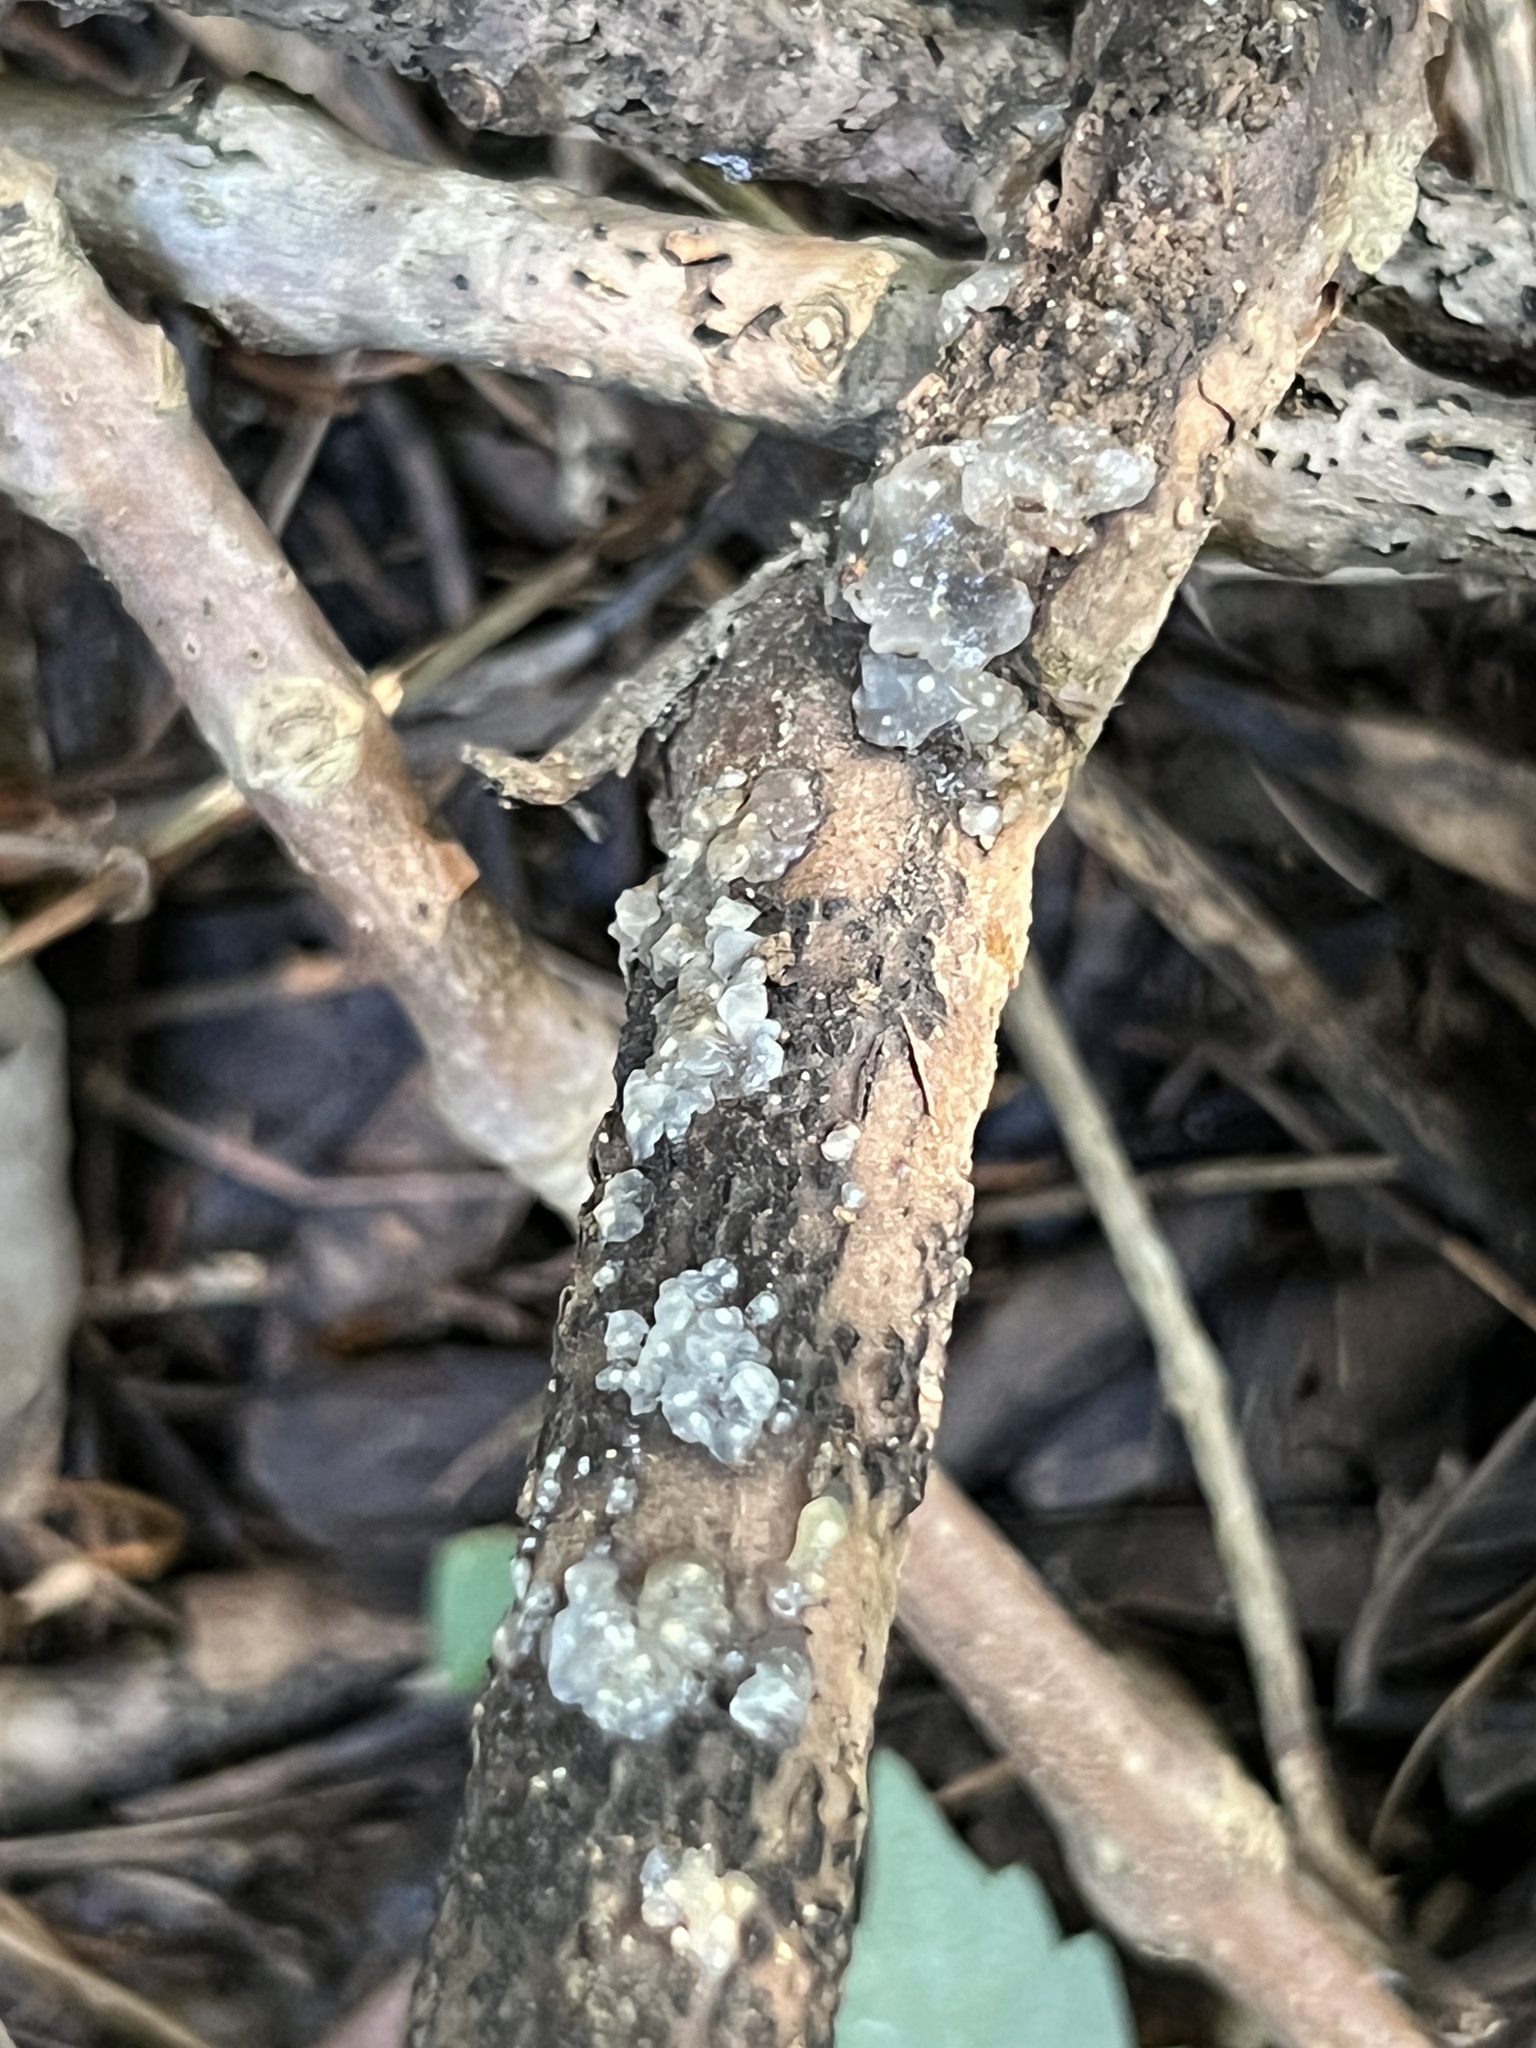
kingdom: Fungi
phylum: Basidiomycota
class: Agaricomycetes
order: Auriculariales
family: Hyaloriaceae
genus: Myxarium
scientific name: Myxarium nucleatum
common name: Crystal brain fungus
